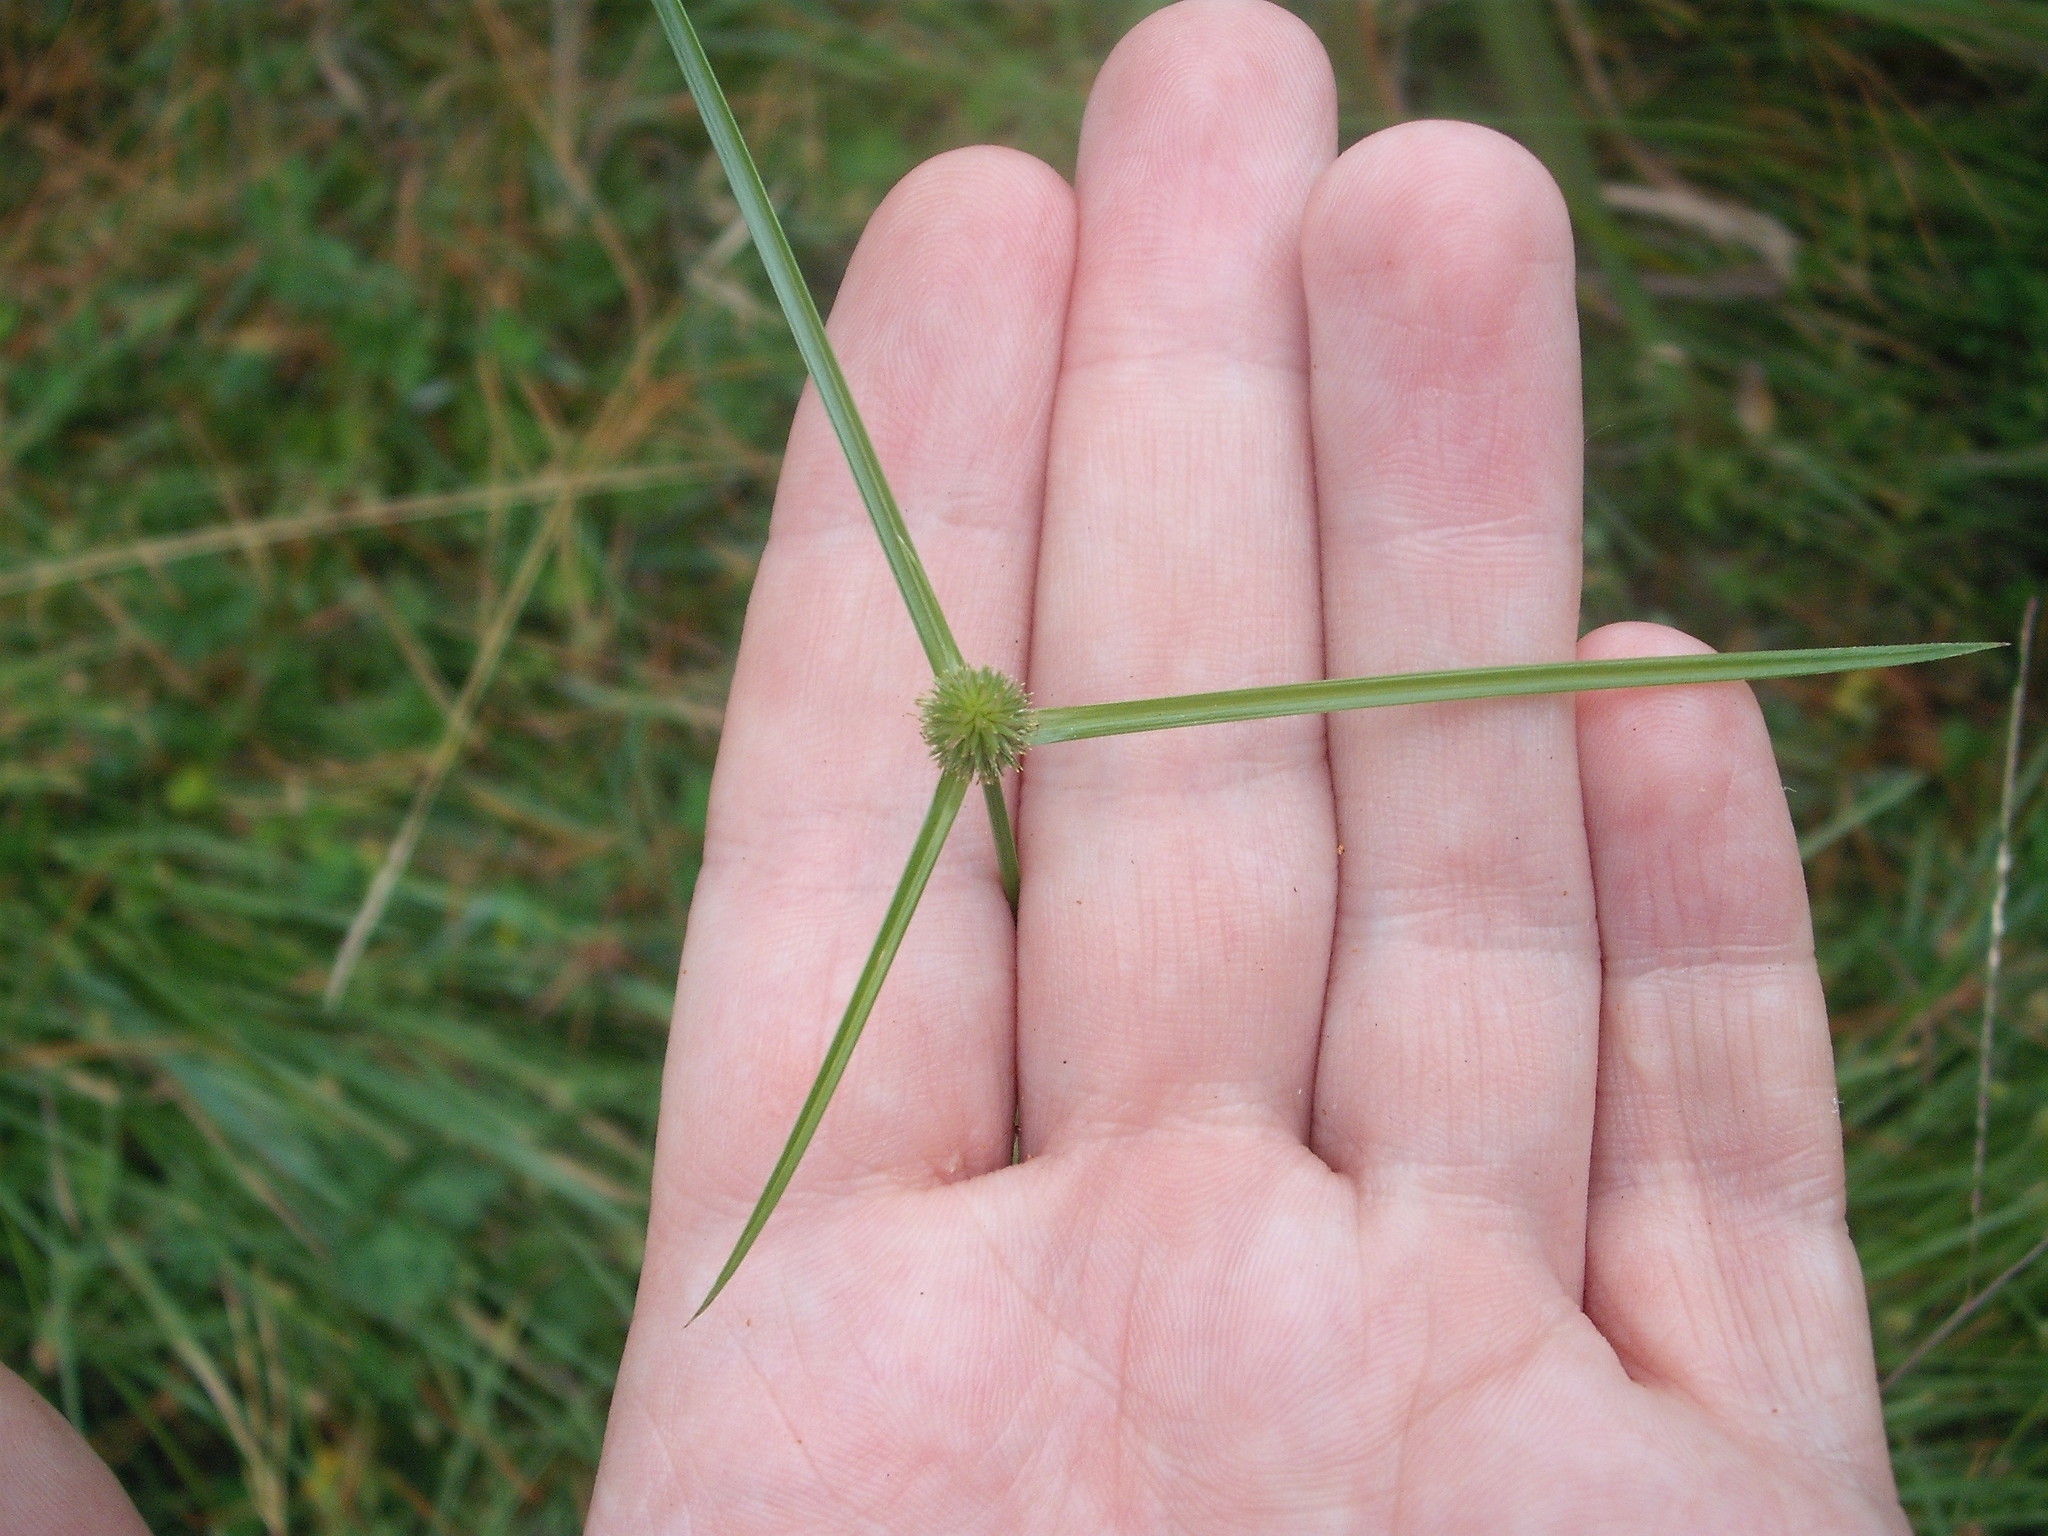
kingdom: Plantae
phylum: Tracheophyta
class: Liliopsida
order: Poales
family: Cyperaceae
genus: Cyperus
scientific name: Cyperus brevifolius
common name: Globe kyllinga
